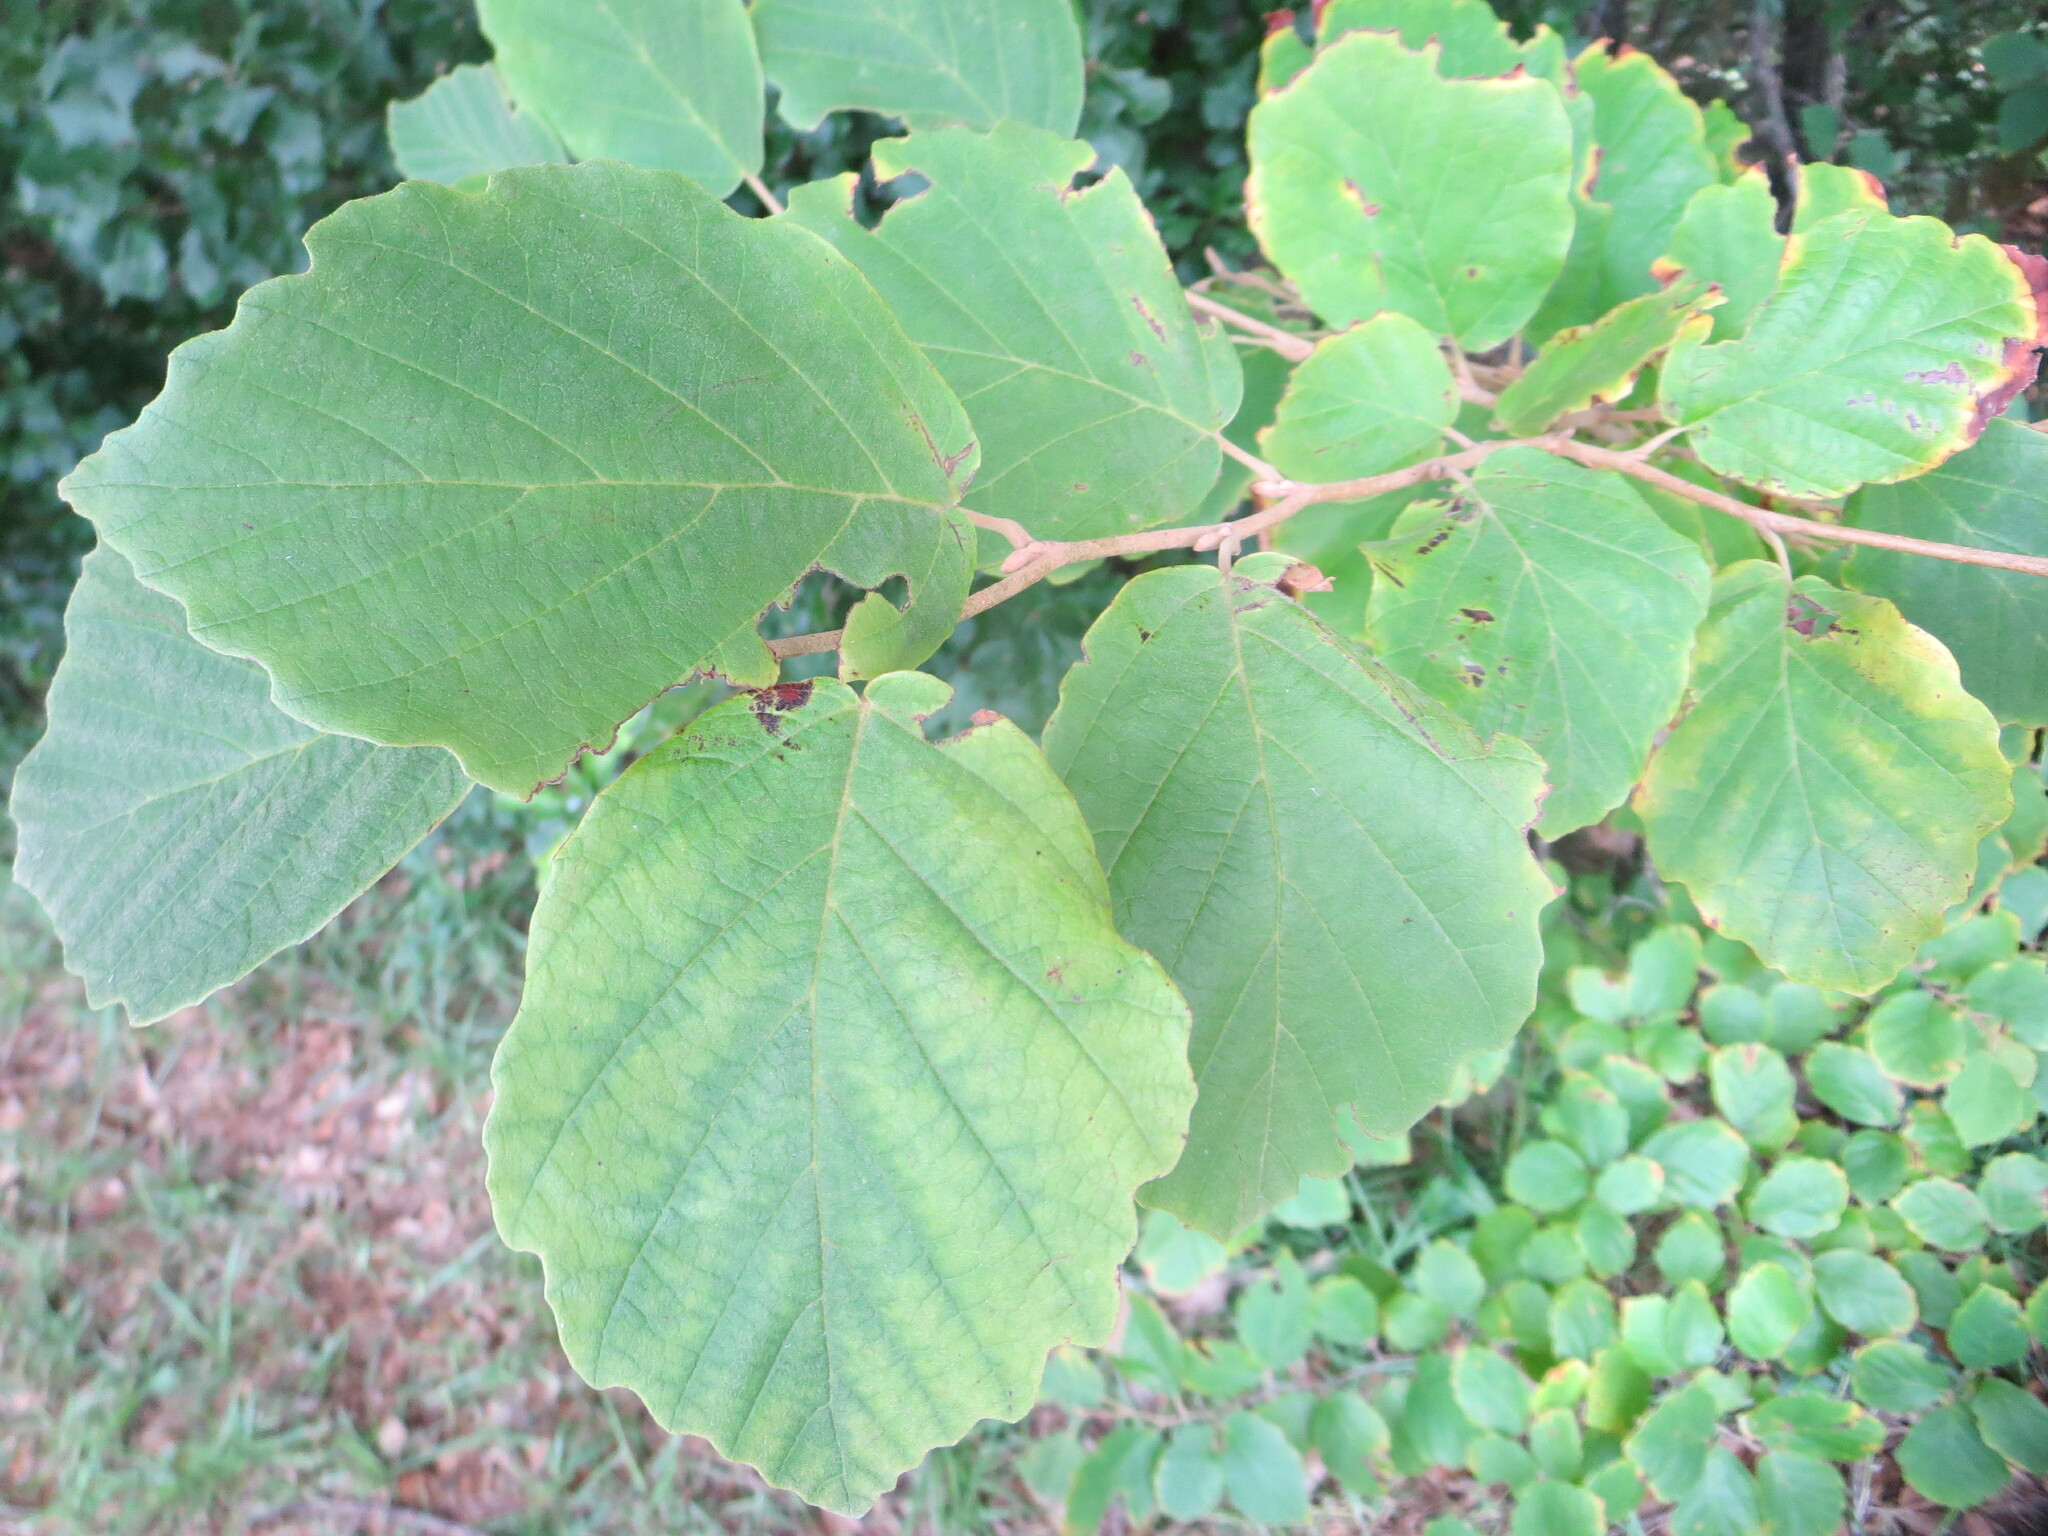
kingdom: Plantae
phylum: Tracheophyta
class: Magnoliopsida
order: Saxifragales
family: Hamamelidaceae
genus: Hamamelis
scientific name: Hamamelis virginiana
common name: Witch-hazel
